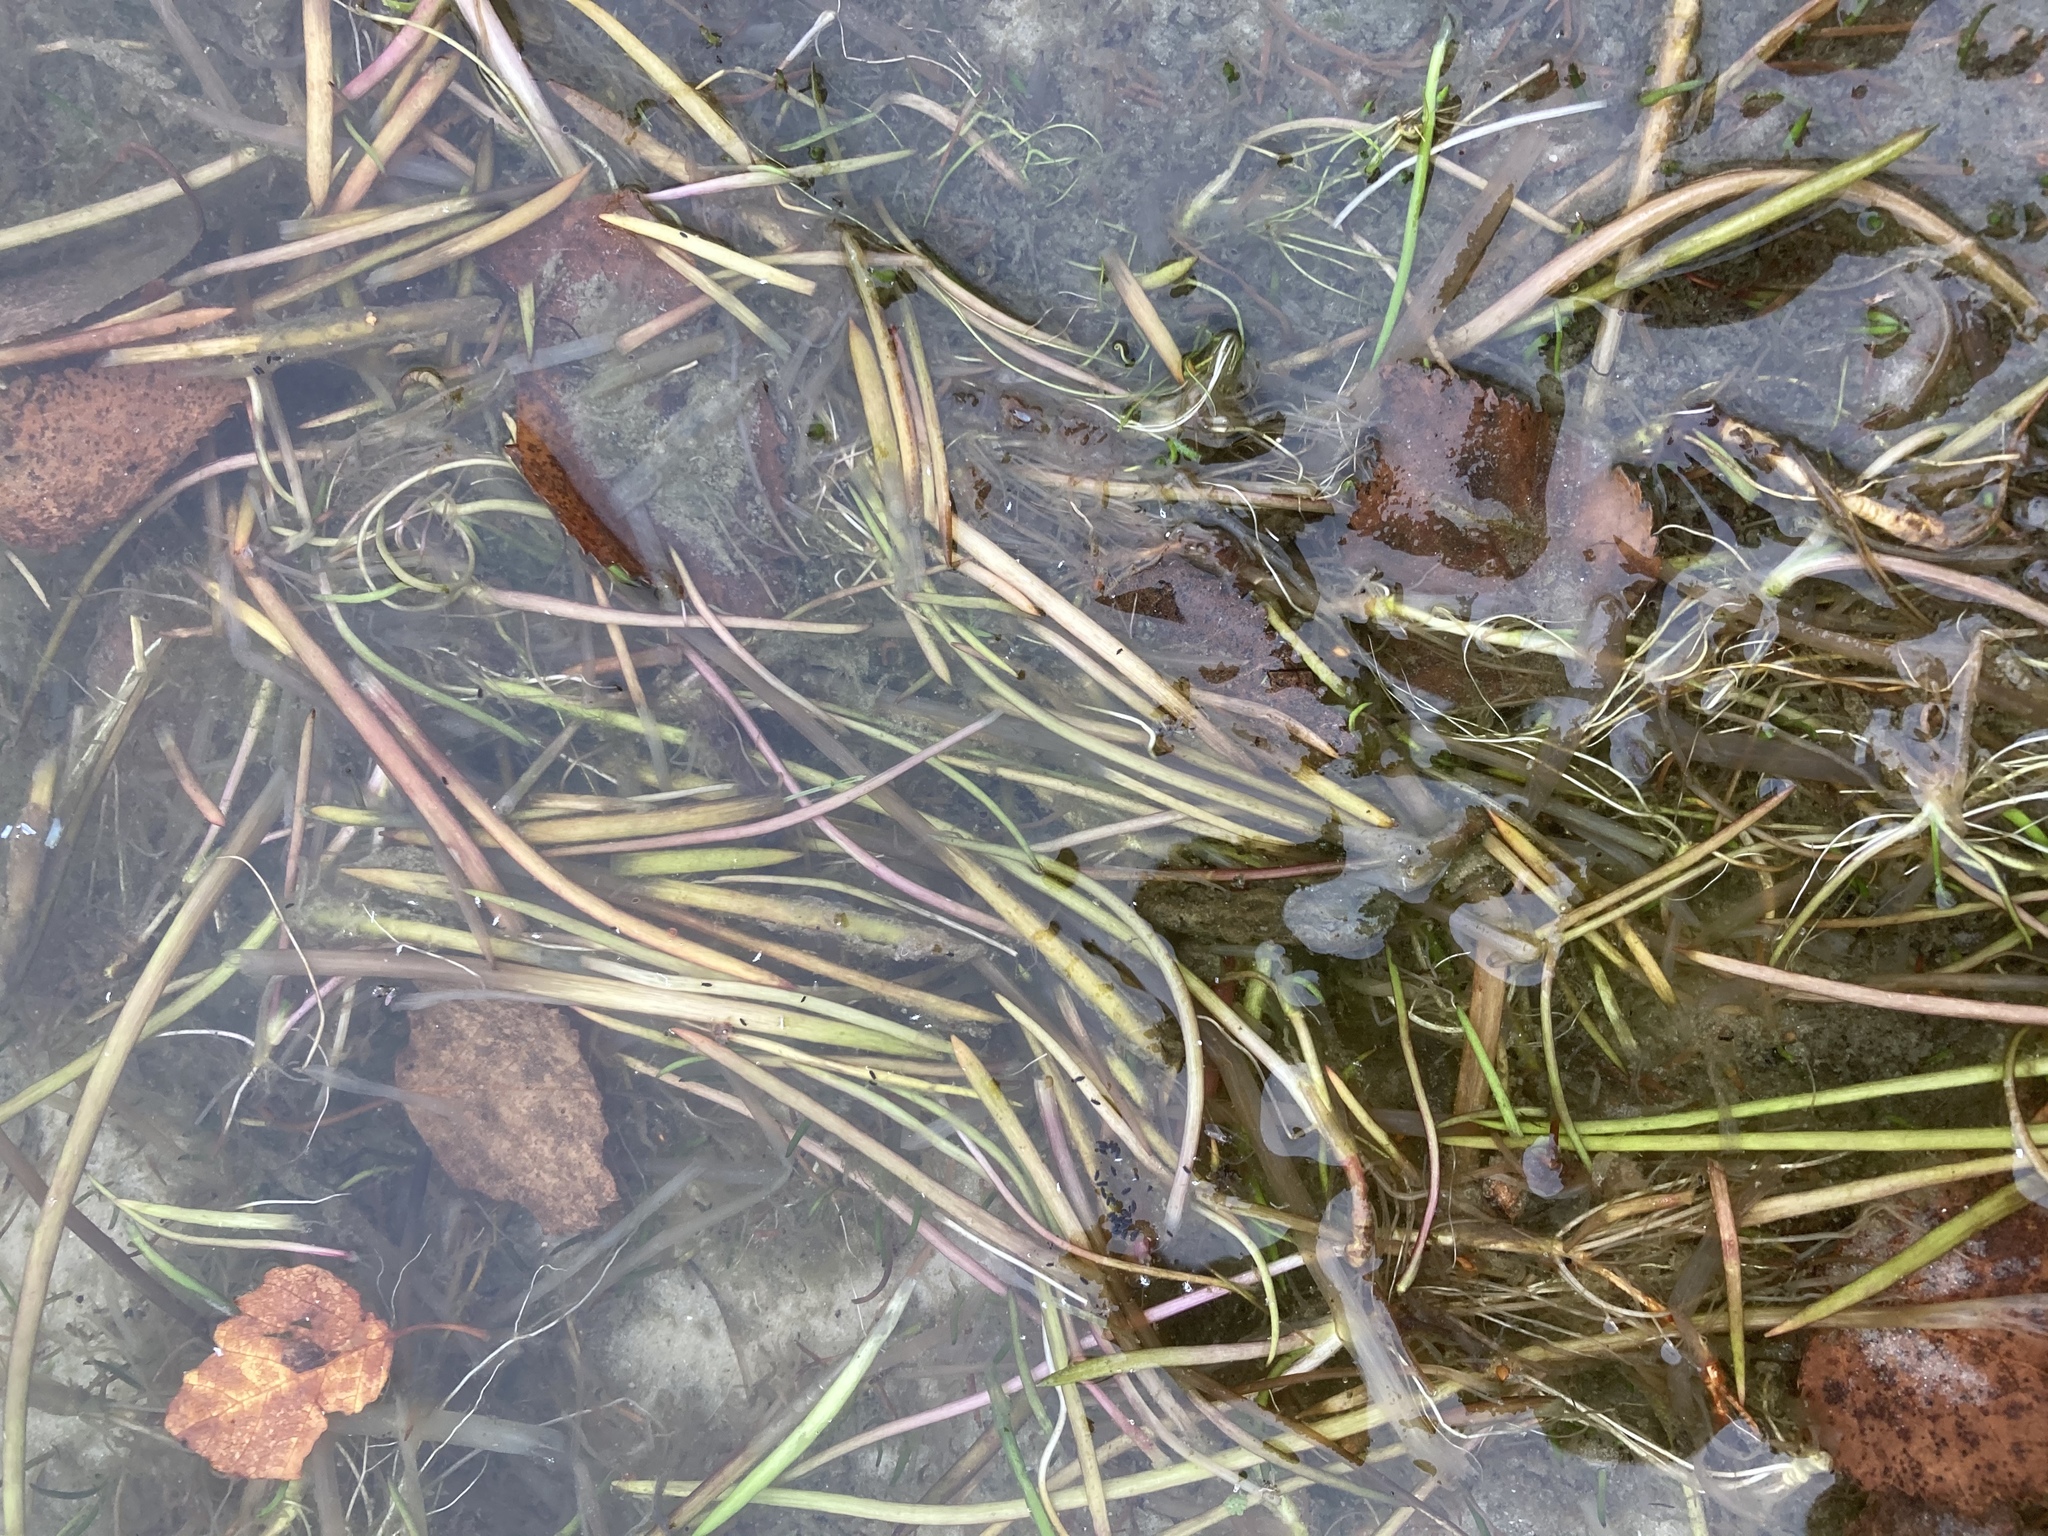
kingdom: Plantae
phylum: Tracheophyta
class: Magnoliopsida
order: Lamiales
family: Plantaginaceae
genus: Littorella
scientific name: Littorella uniflora
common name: Shoreweed
